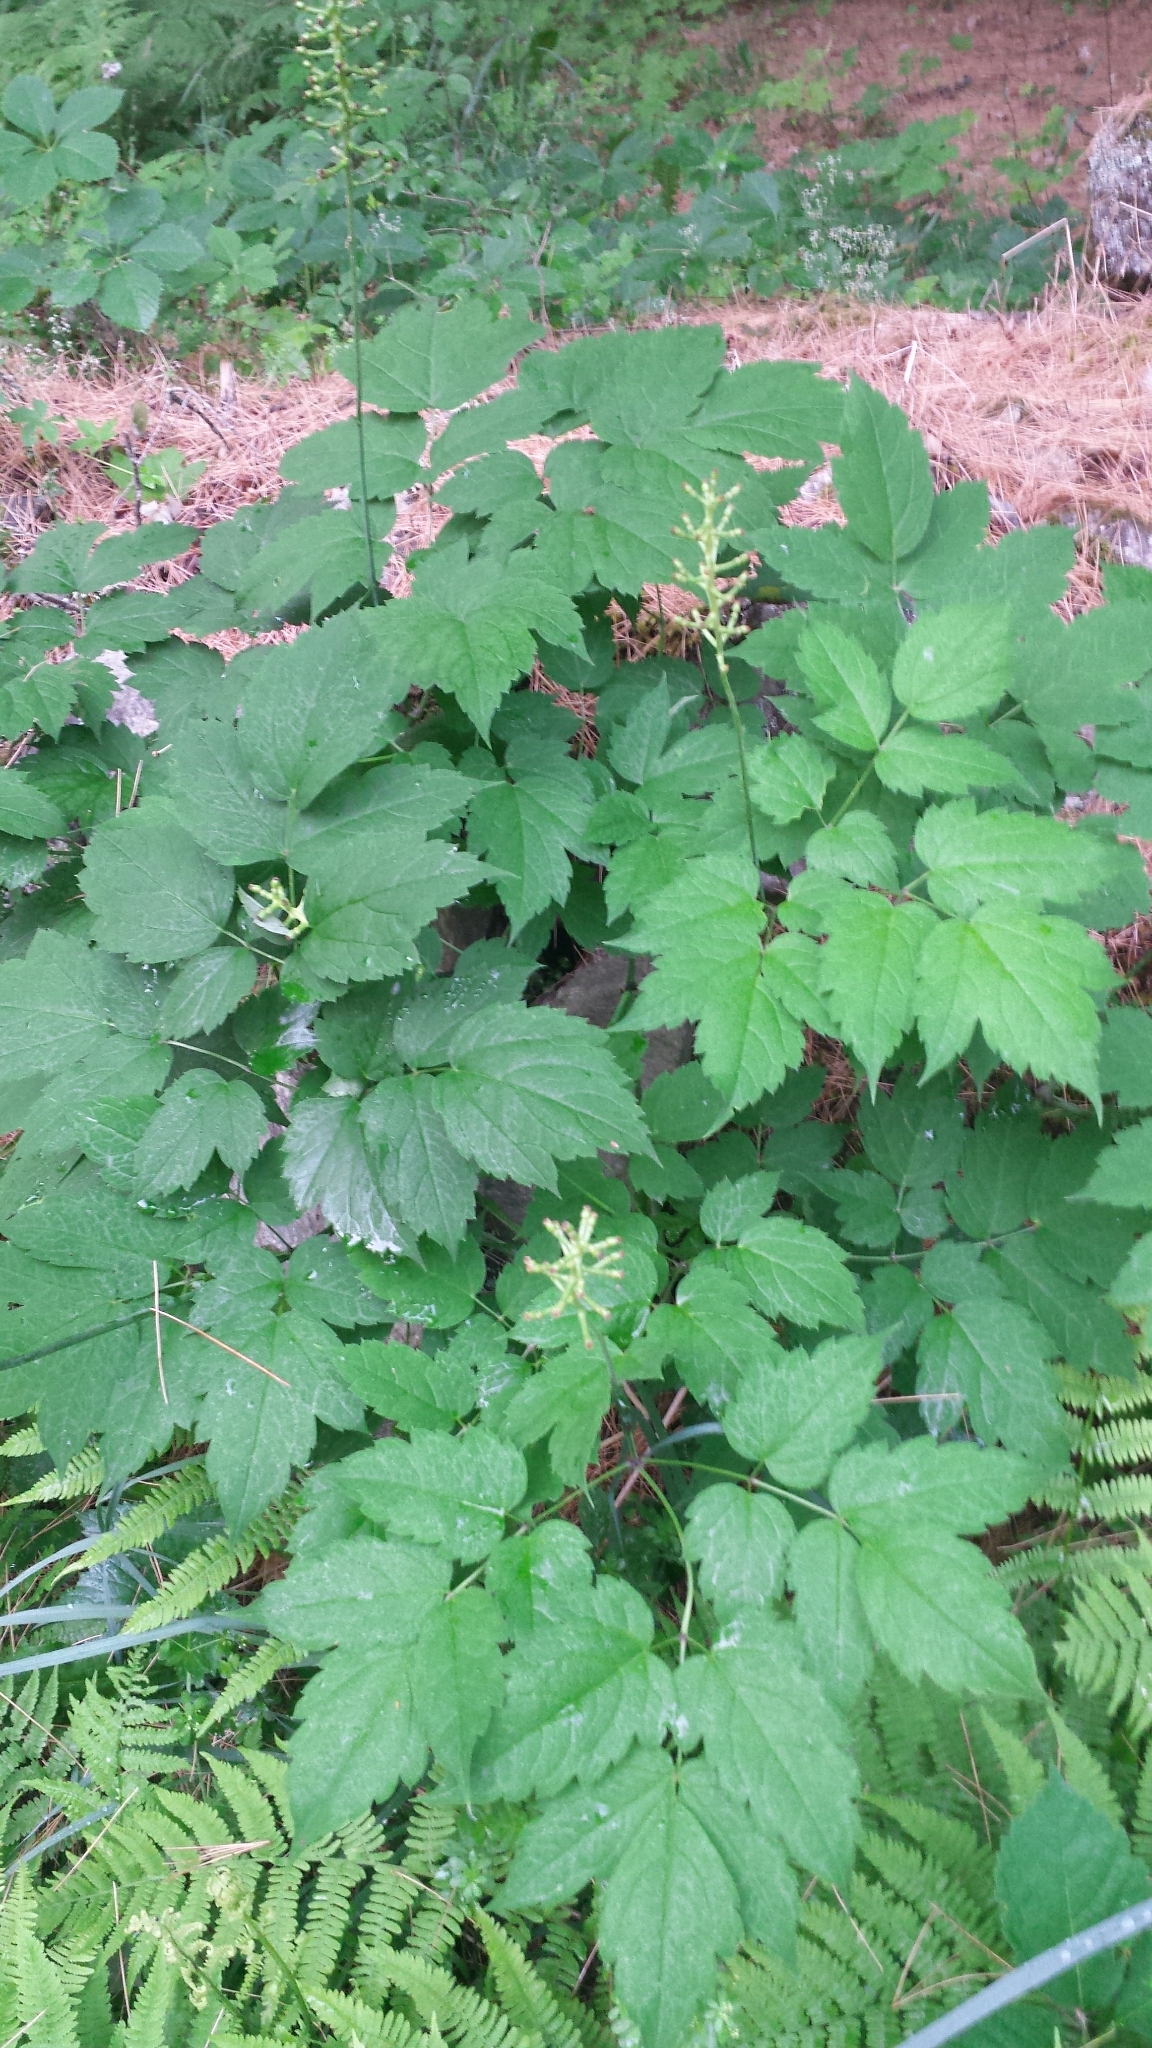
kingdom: Plantae
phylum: Tracheophyta
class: Magnoliopsida
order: Ranunculales
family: Ranunculaceae
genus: Actaea
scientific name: Actaea pachypoda
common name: Doll's-eyes
